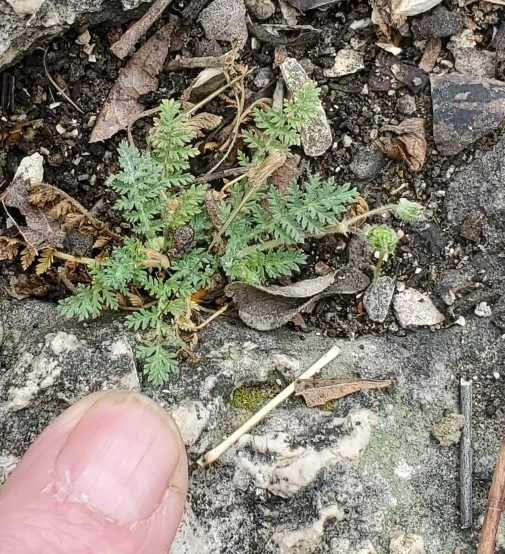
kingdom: Plantae
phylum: Tracheophyta
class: Magnoliopsida
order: Geraniales
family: Geraniaceae
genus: Erodium
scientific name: Erodium cicutarium
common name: Common stork's-bill
